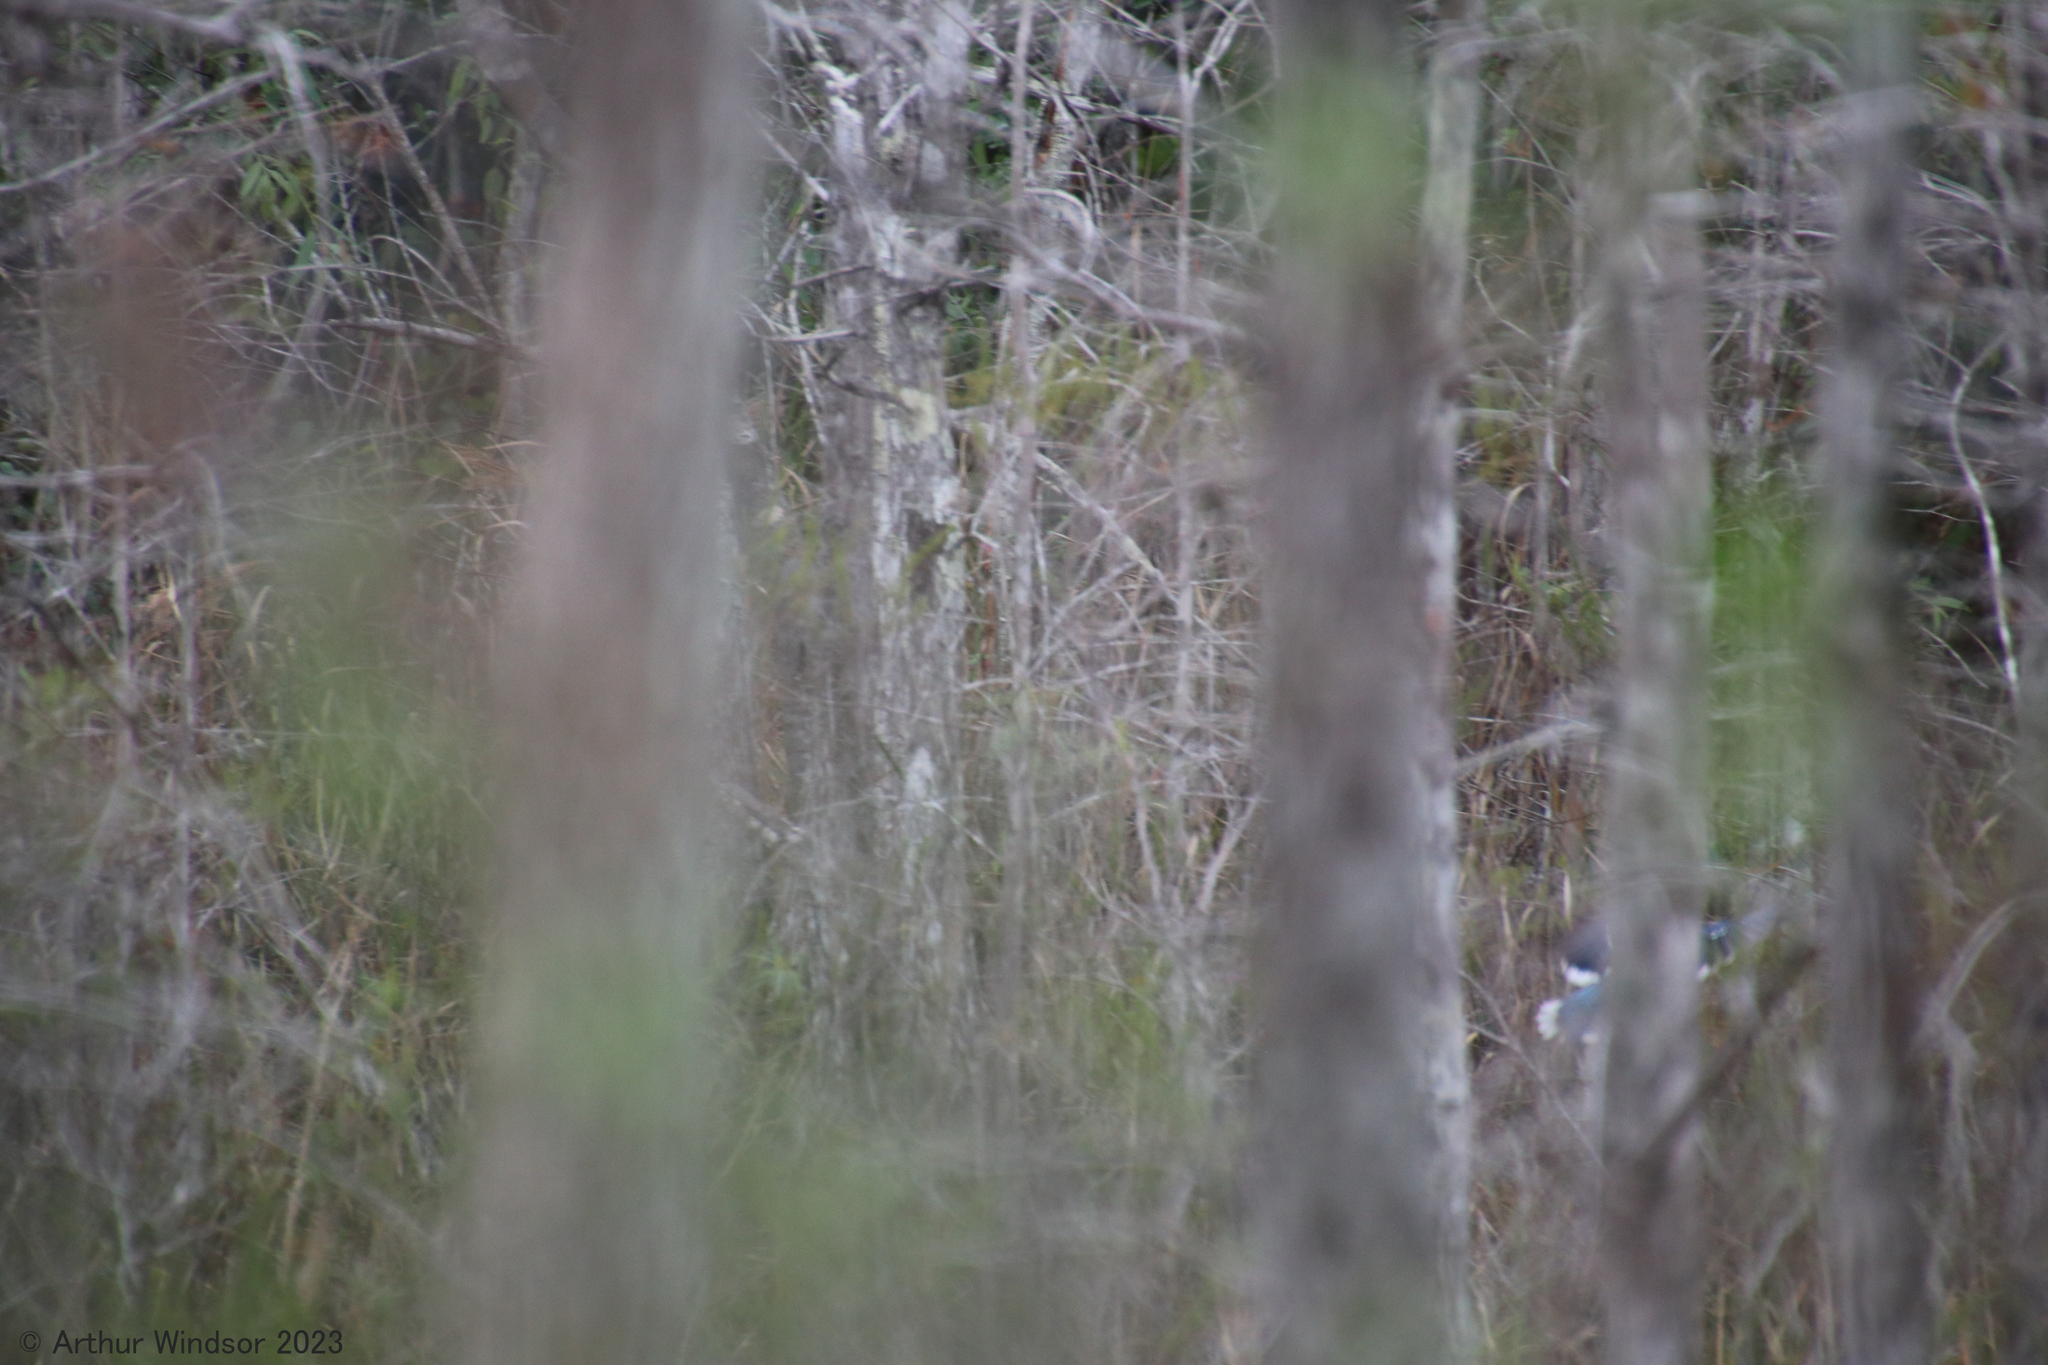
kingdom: Animalia
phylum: Chordata
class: Aves
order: Passeriformes
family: Corvidae
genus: Cyanocitta
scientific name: Cyanocitta cristata
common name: Blue jay
